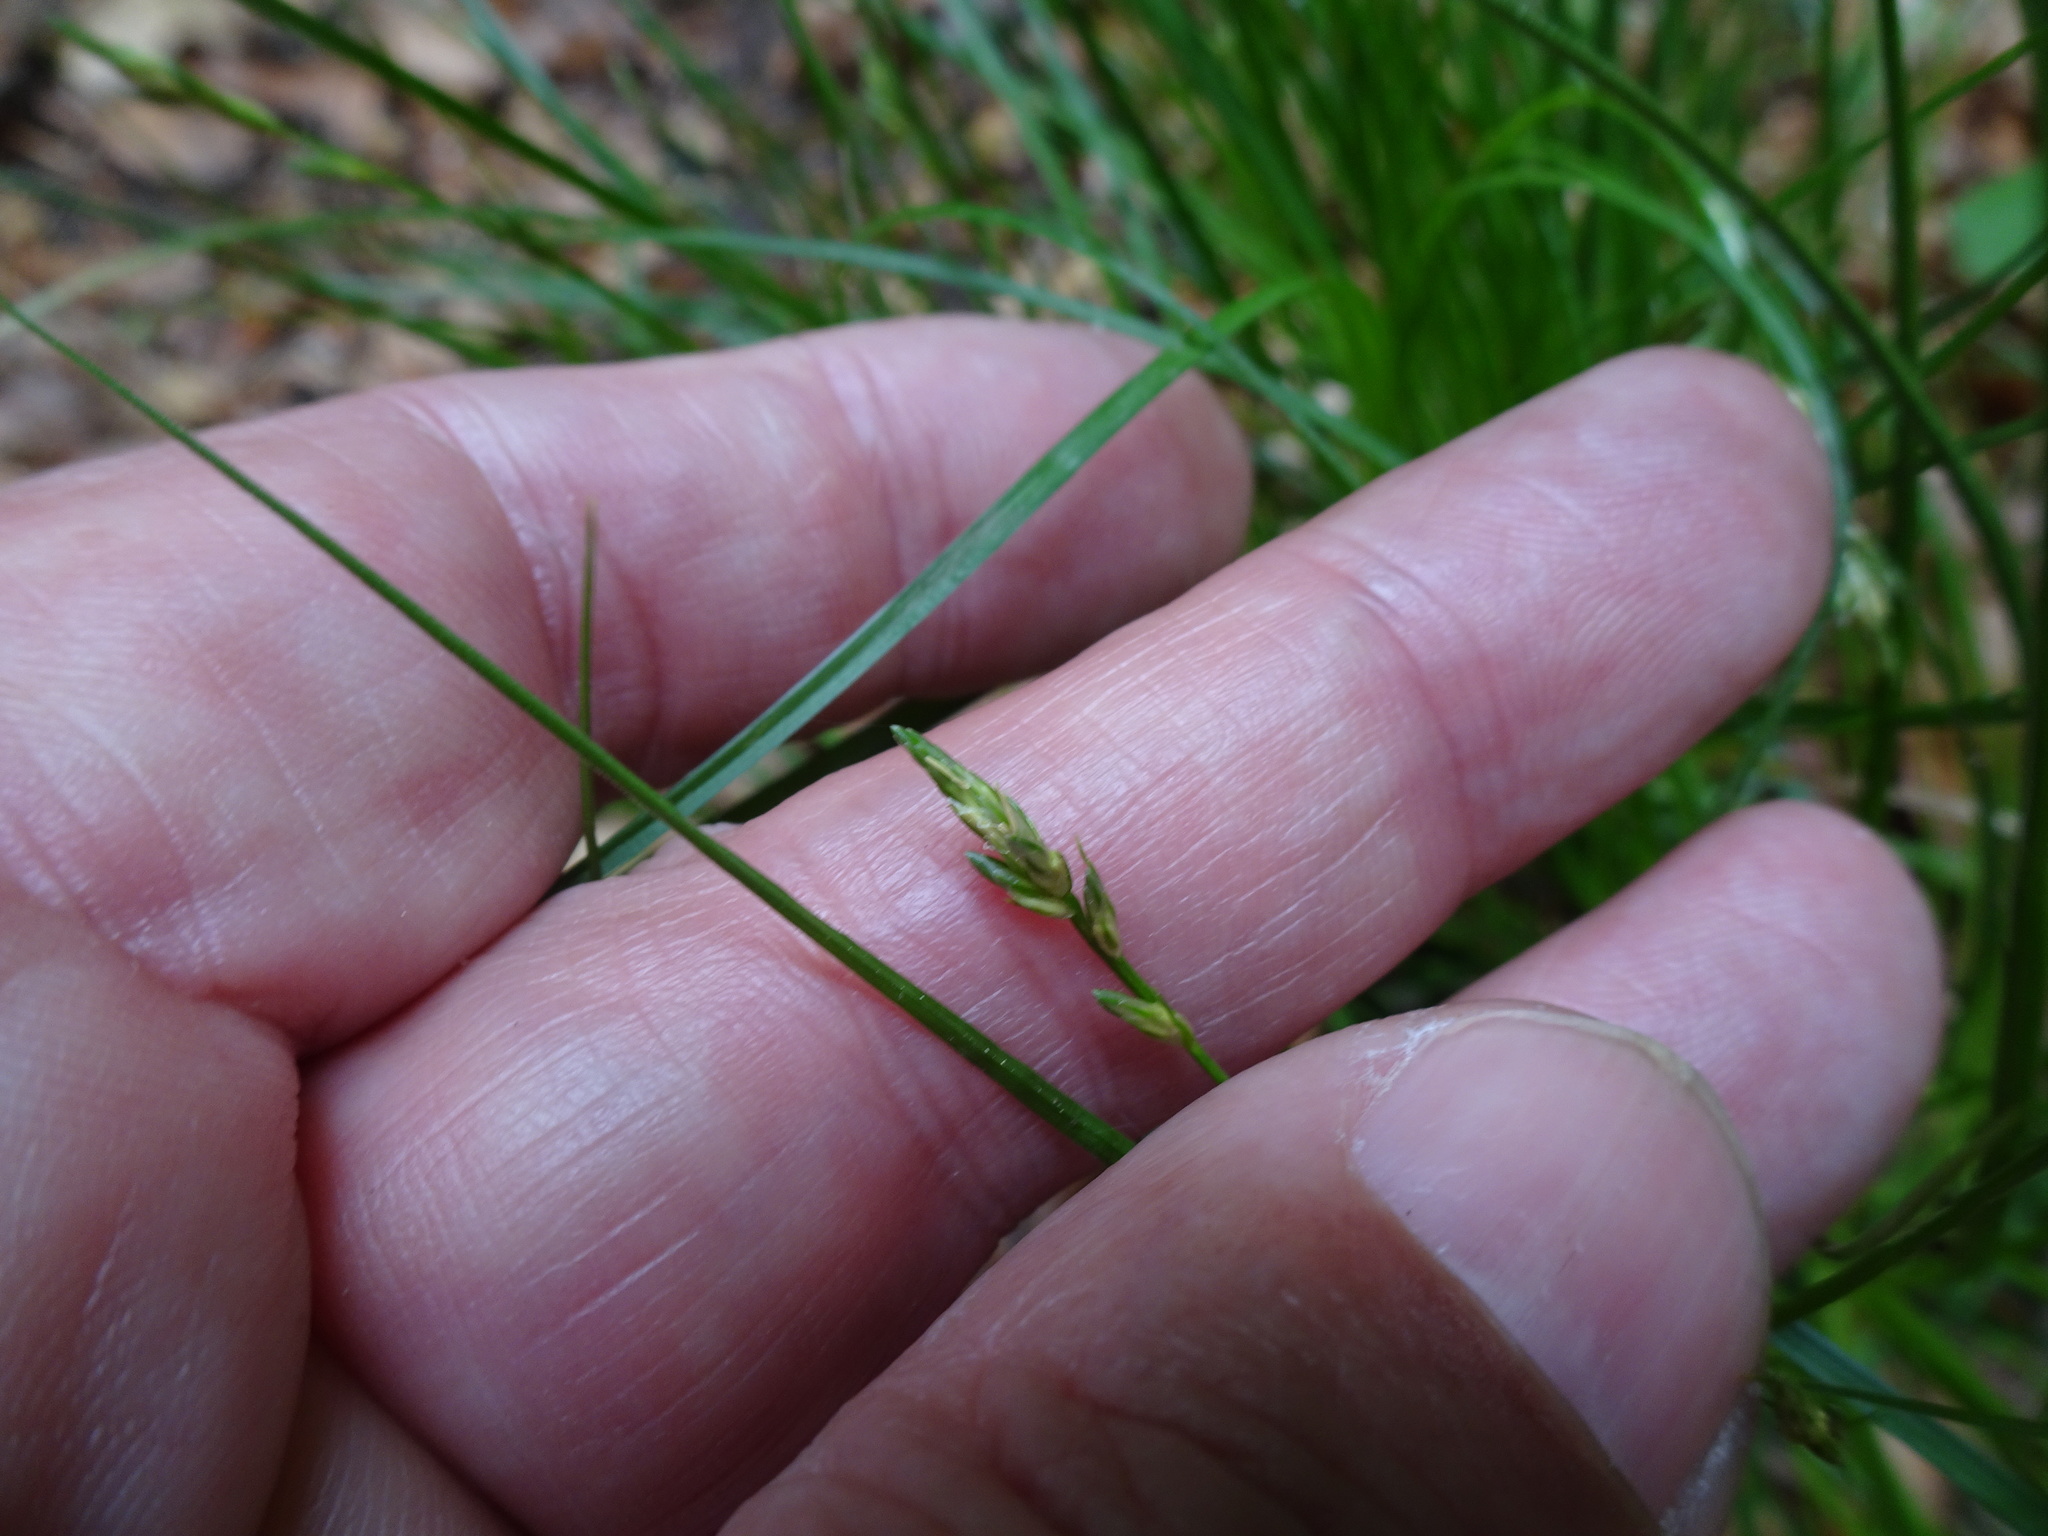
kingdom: Plantae
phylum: Tracheophyta
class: Liliopsida
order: Poales
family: Cyperaceae
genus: Carex
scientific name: Carex remota
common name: Remote sedge
